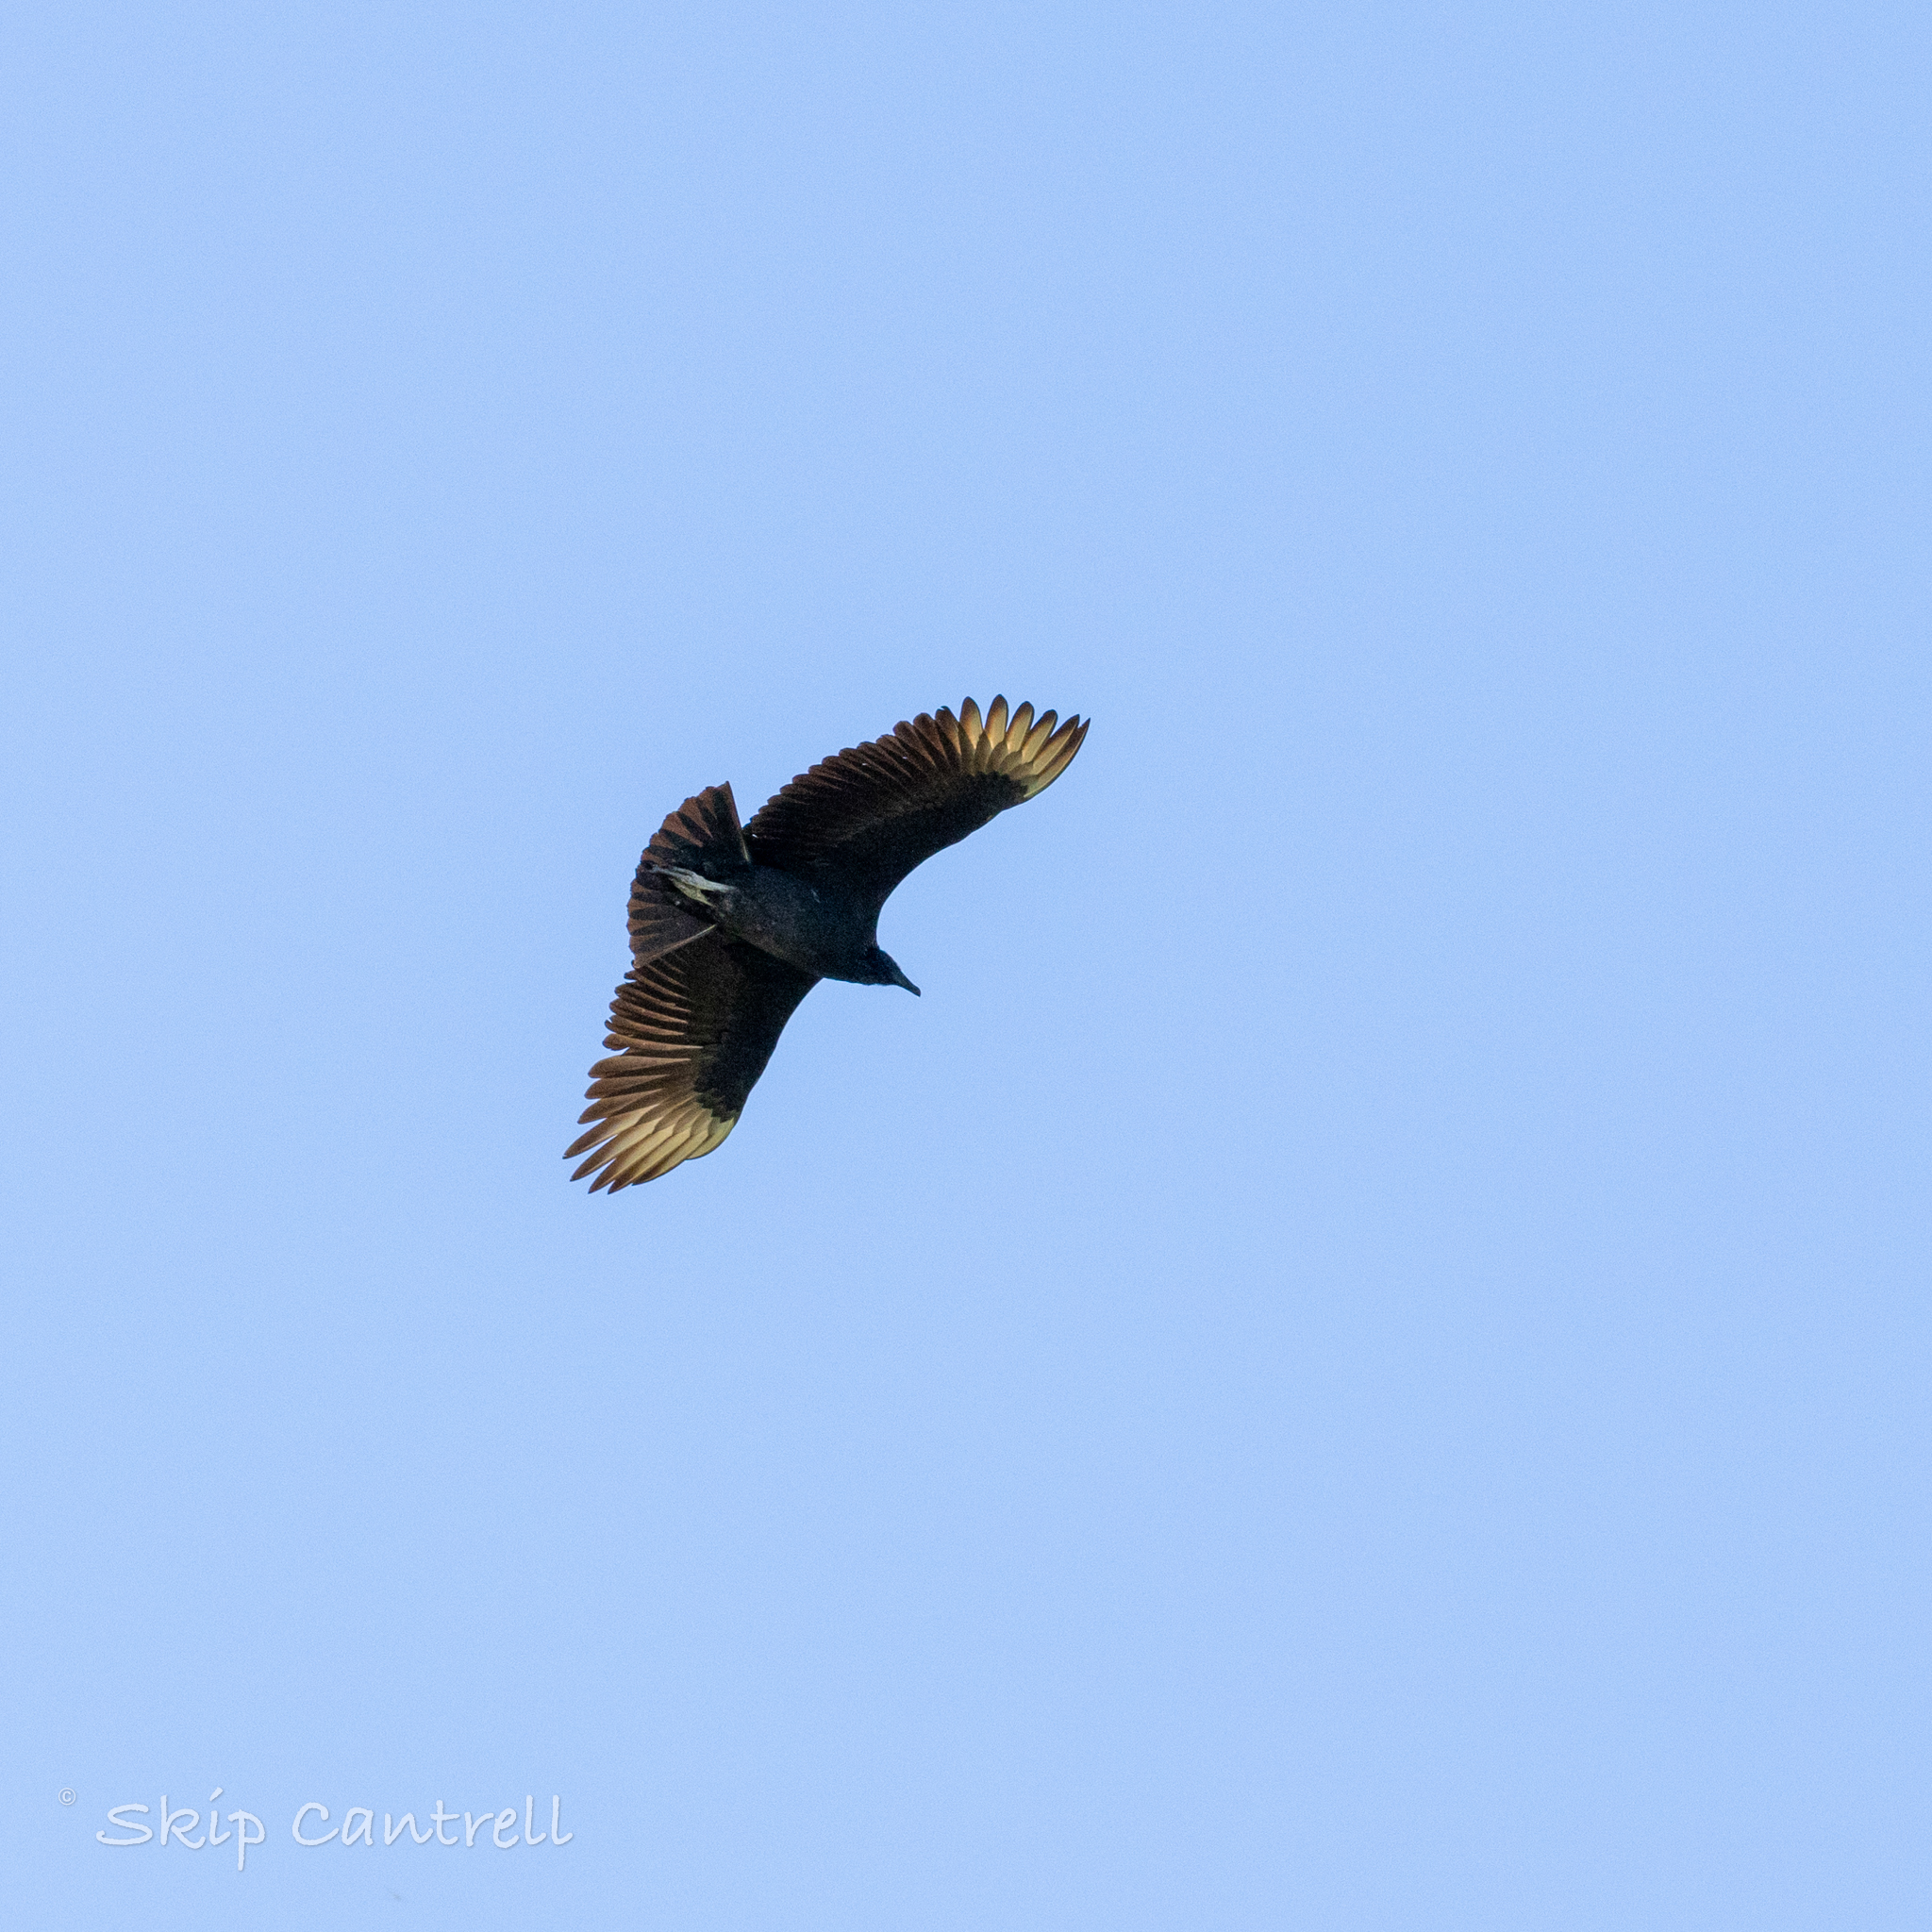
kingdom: Animalia
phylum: Chordata
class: Aves
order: Accipitriformes
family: Cathartidae
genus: Coragyps
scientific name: Coragyps atratus
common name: Black vulture
